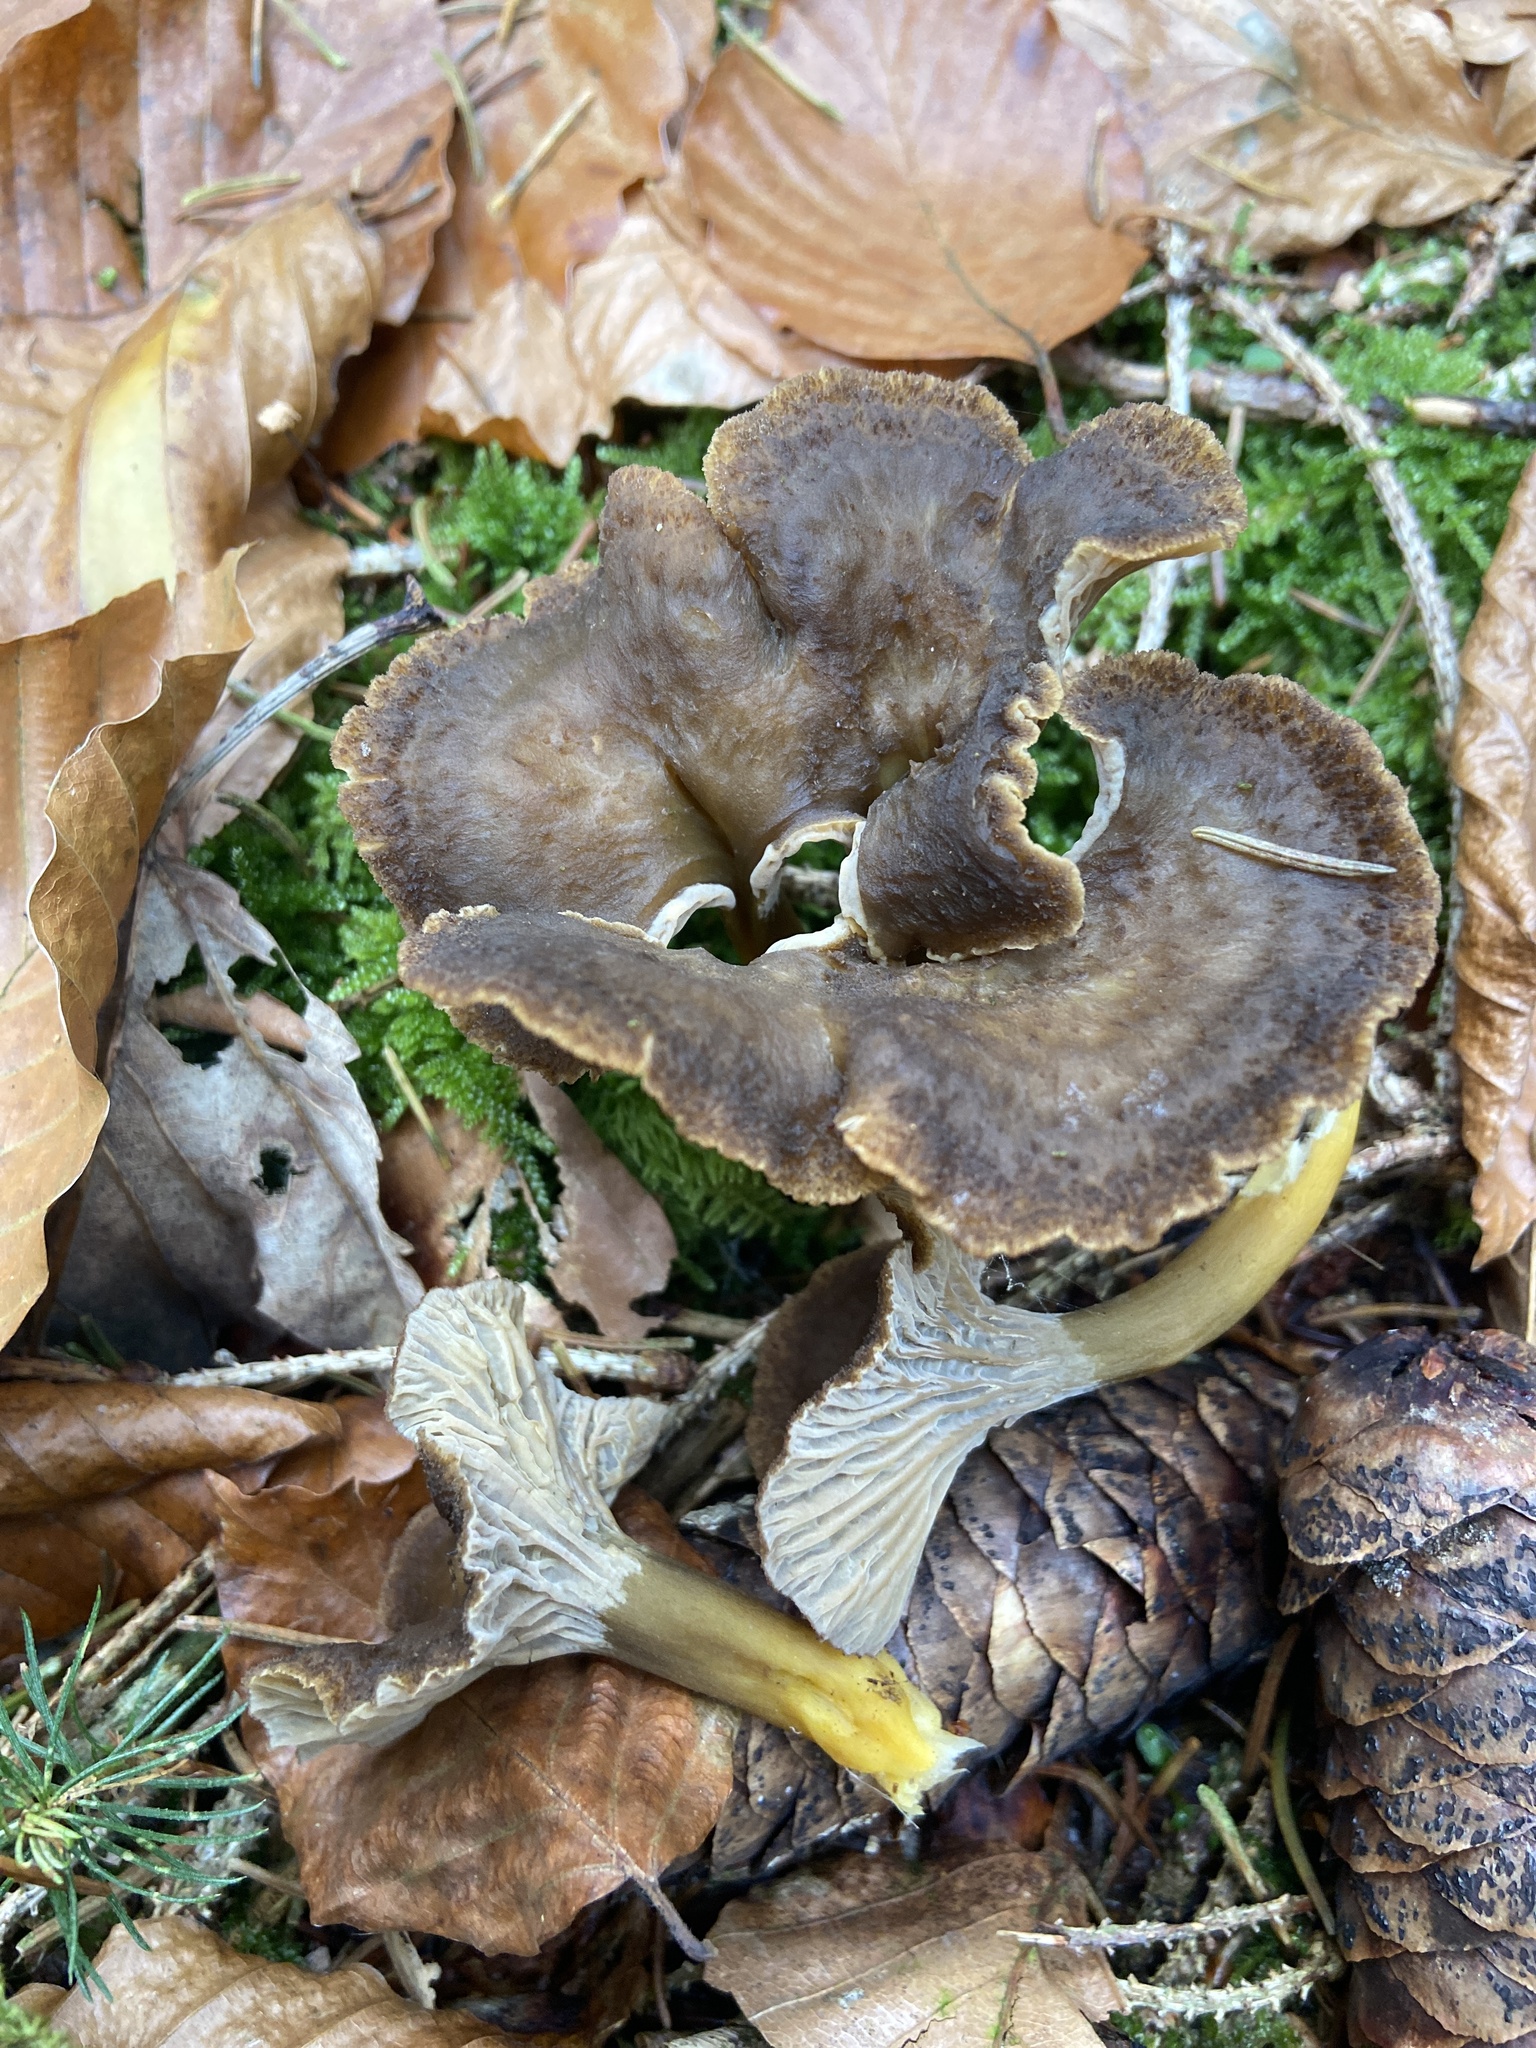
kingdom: Fungi
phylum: Basidiomycota
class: Agaricomycetes
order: Cantharellales
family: Hydnaceae
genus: Craterellus
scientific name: Craterellus tubaeformis
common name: Yellowfoot
